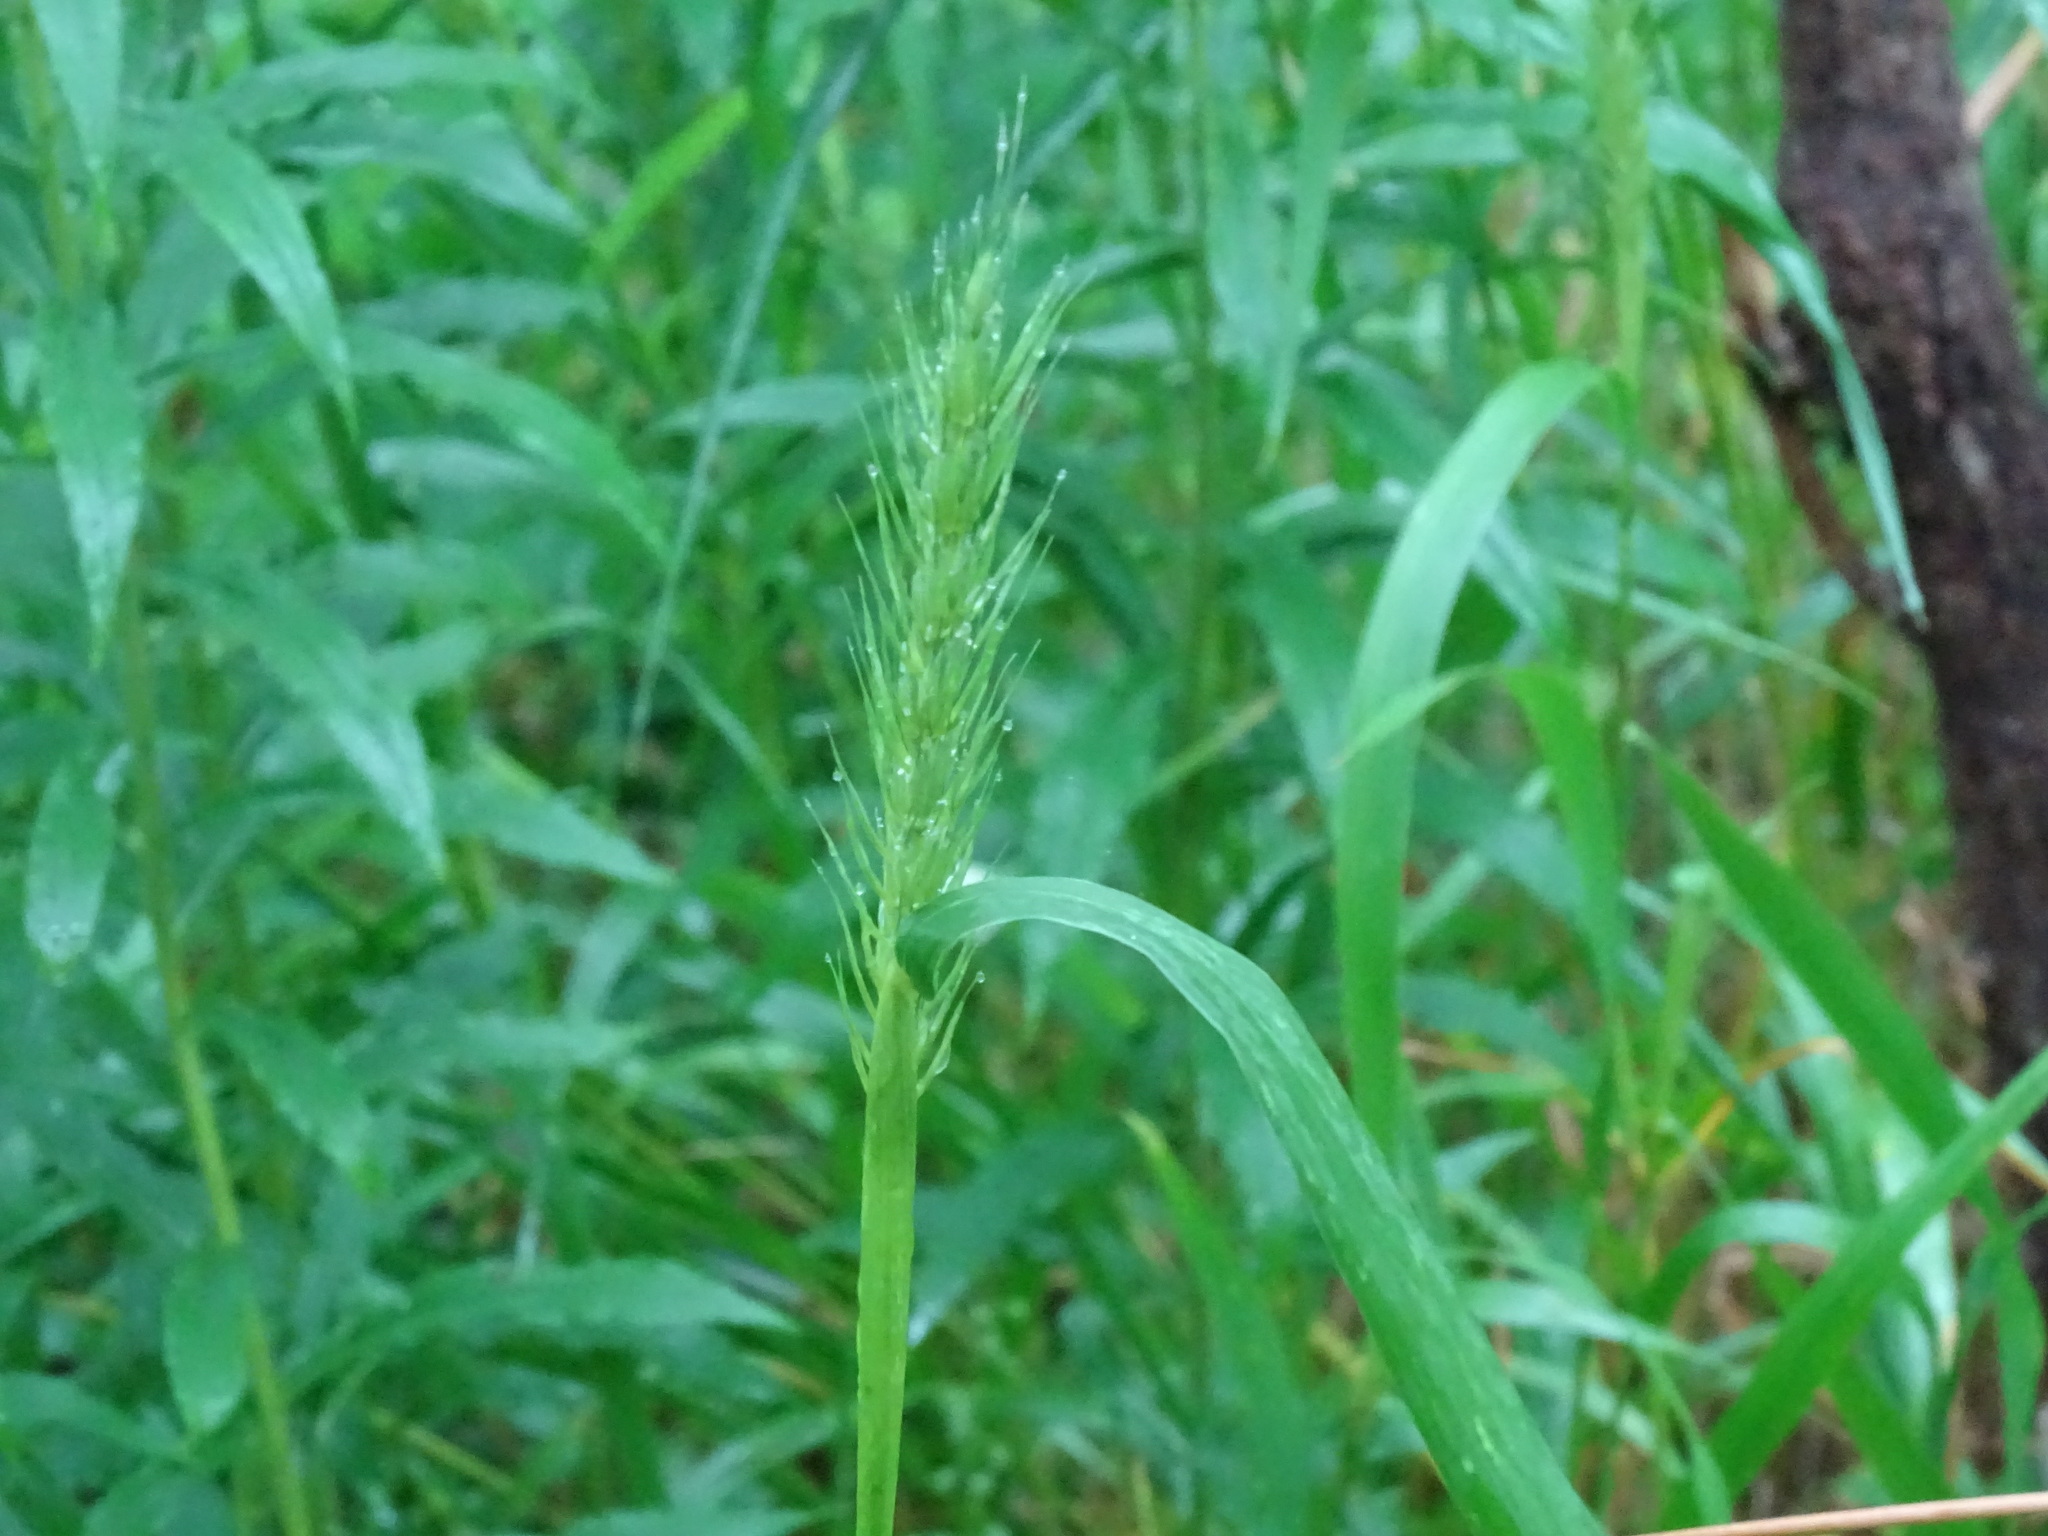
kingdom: Plantae
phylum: Tracheophyta
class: Liliopsida
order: Poales
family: Poaceae
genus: Elymus
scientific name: Elymus virginicus
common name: Common eastern wildrye
